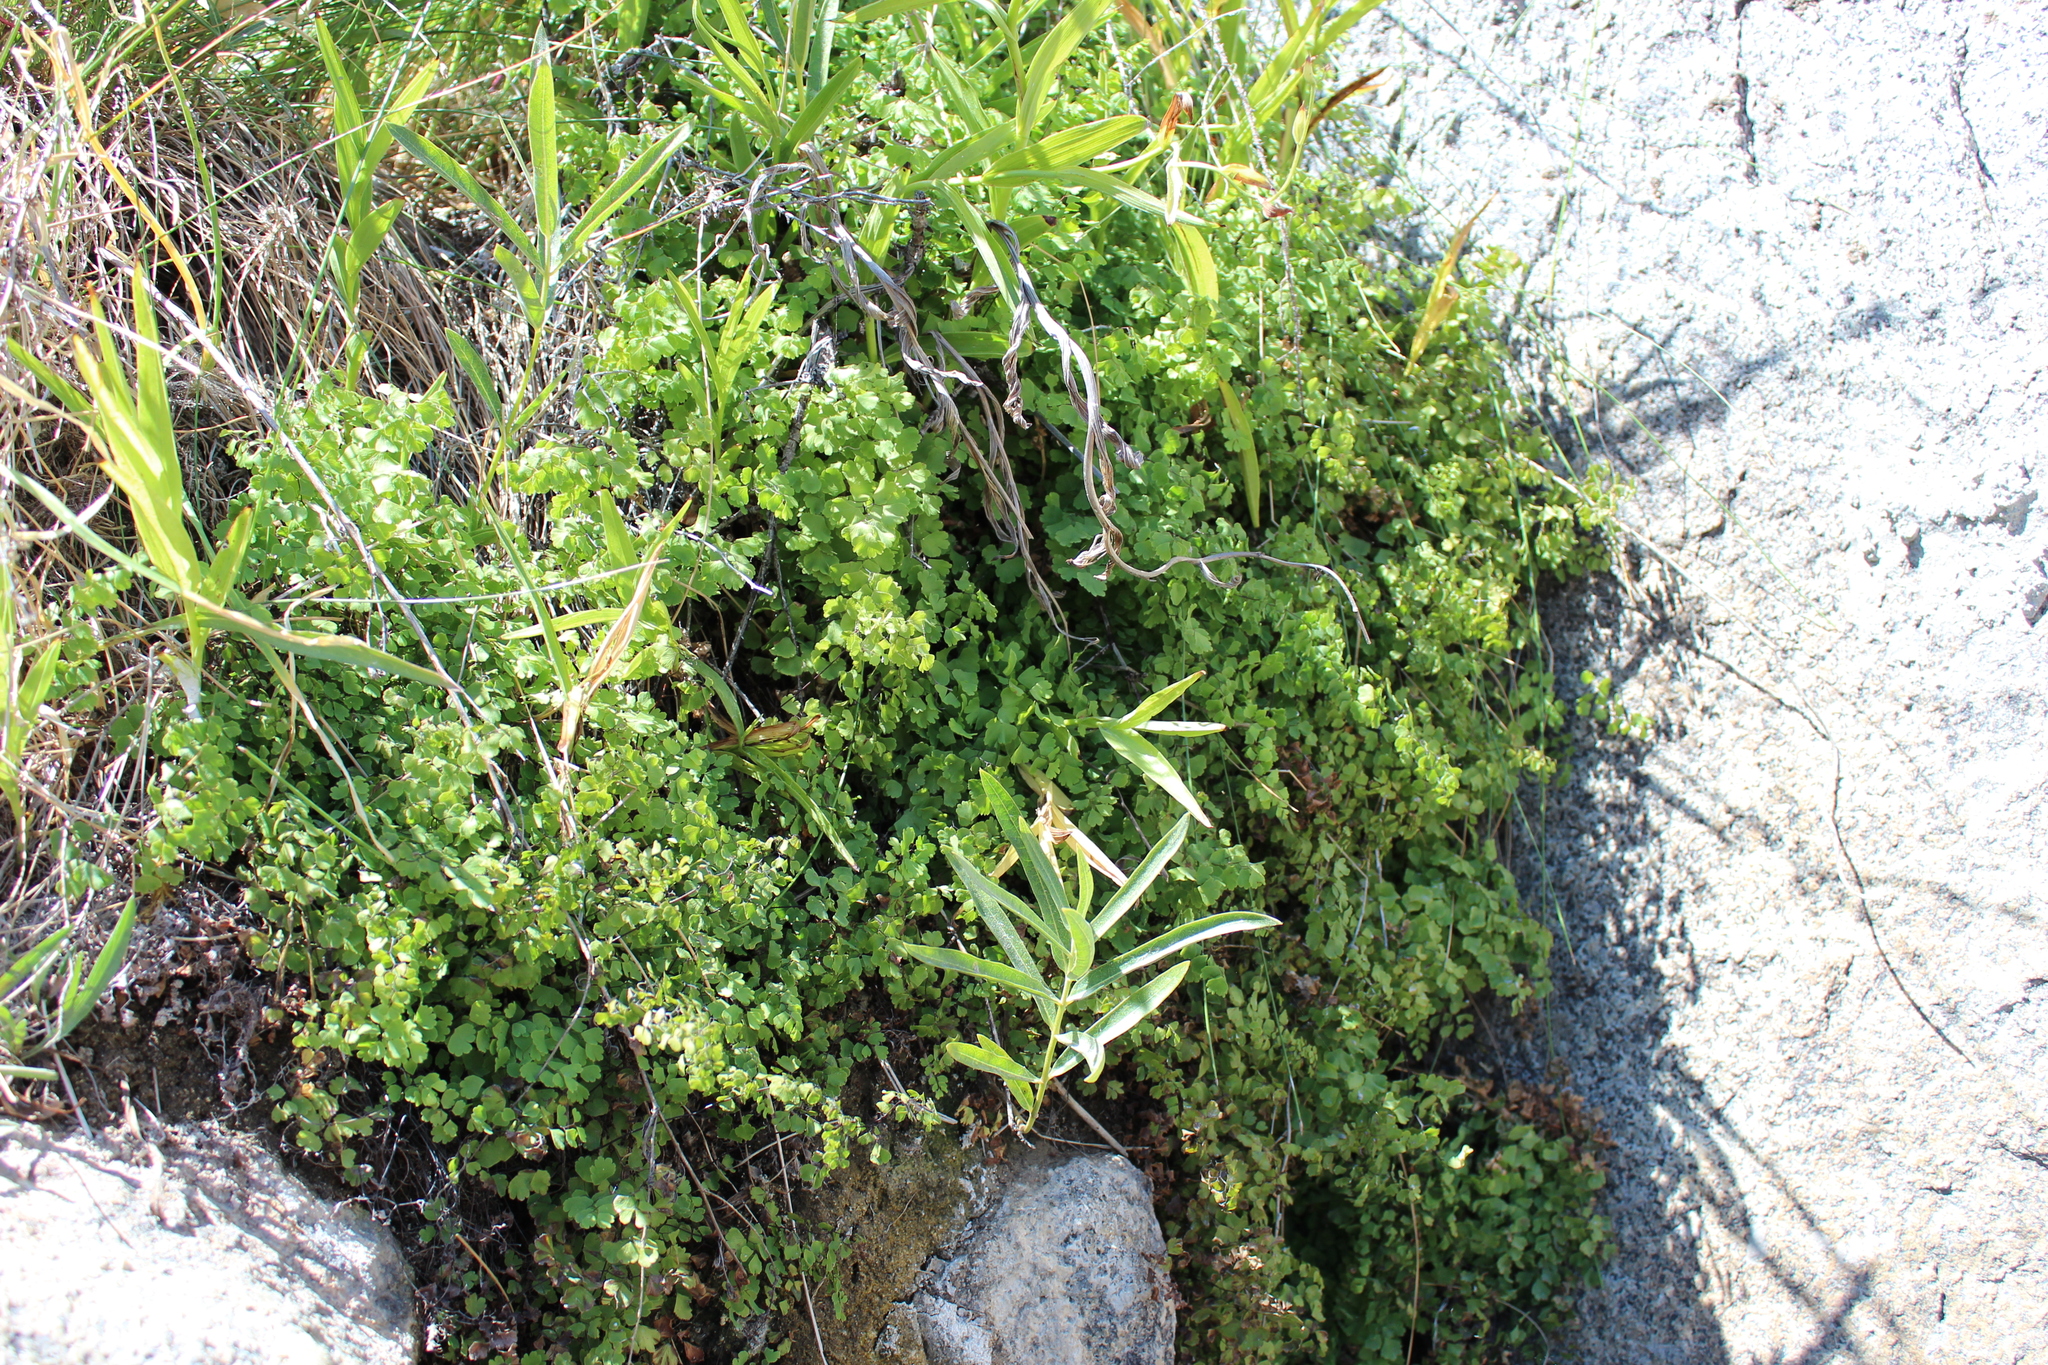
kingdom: Plantae
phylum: Tracheophyta
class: Polypodiopsida
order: Polypodiales
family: Pteridaceae
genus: Adiantum
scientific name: Adiantum capillus-veneris
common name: Maidenhair fern
